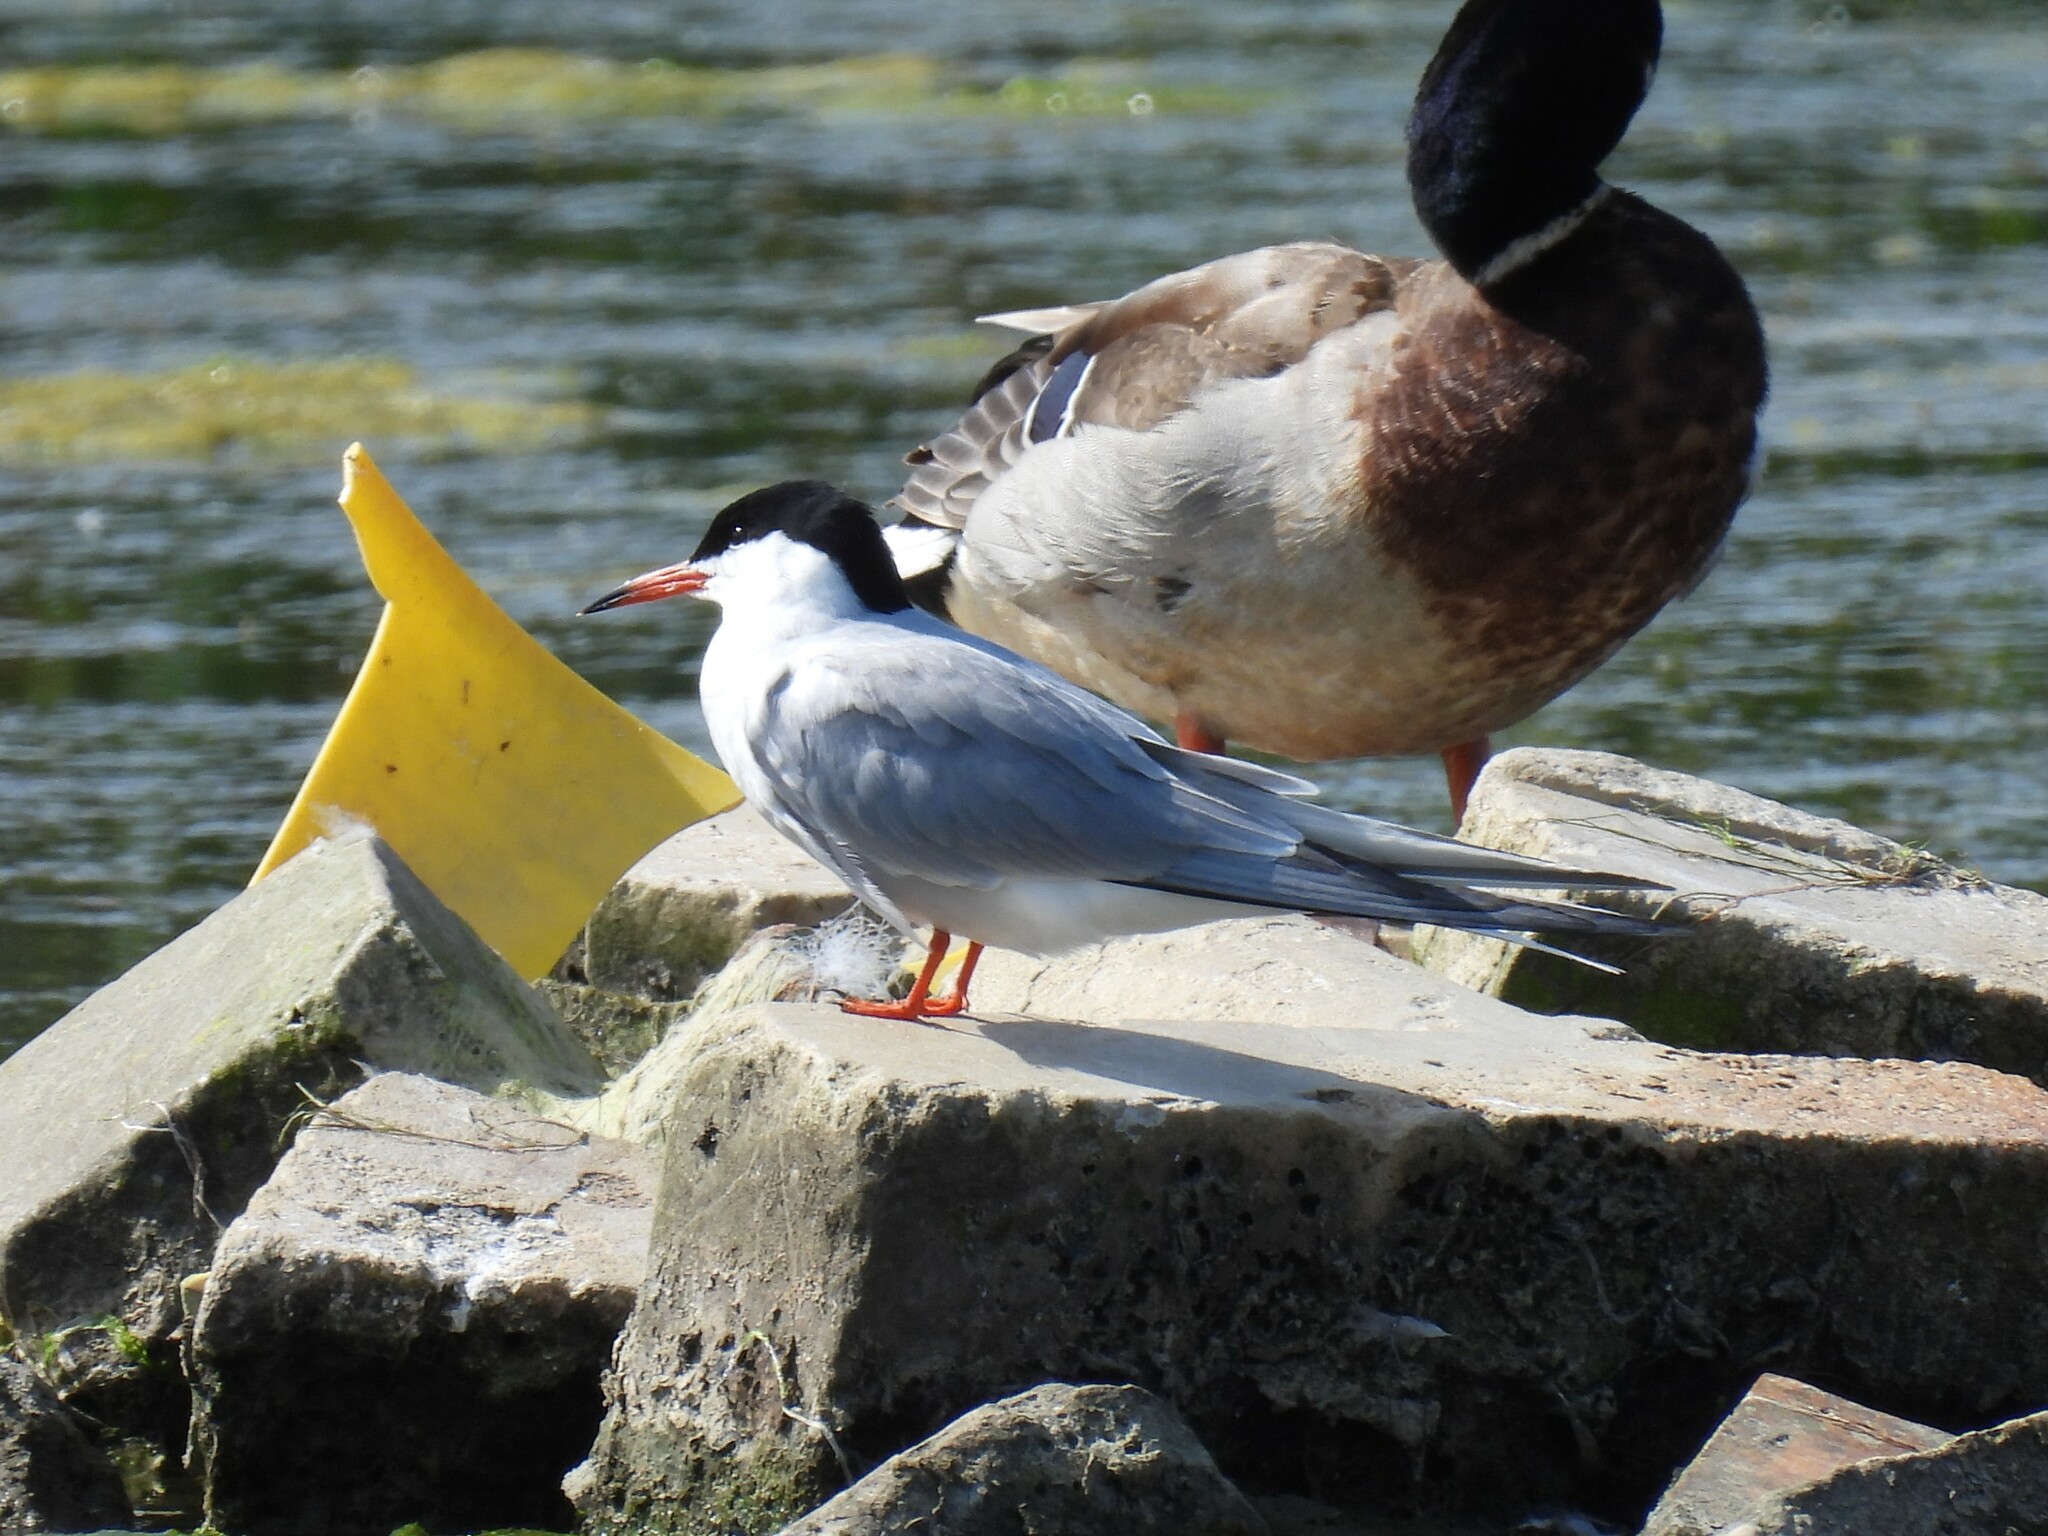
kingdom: Animalia
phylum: Chordata
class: Aves
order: Charadriiformes
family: Laridae
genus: Sterna
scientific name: Sterna hirundo
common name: Common tern
